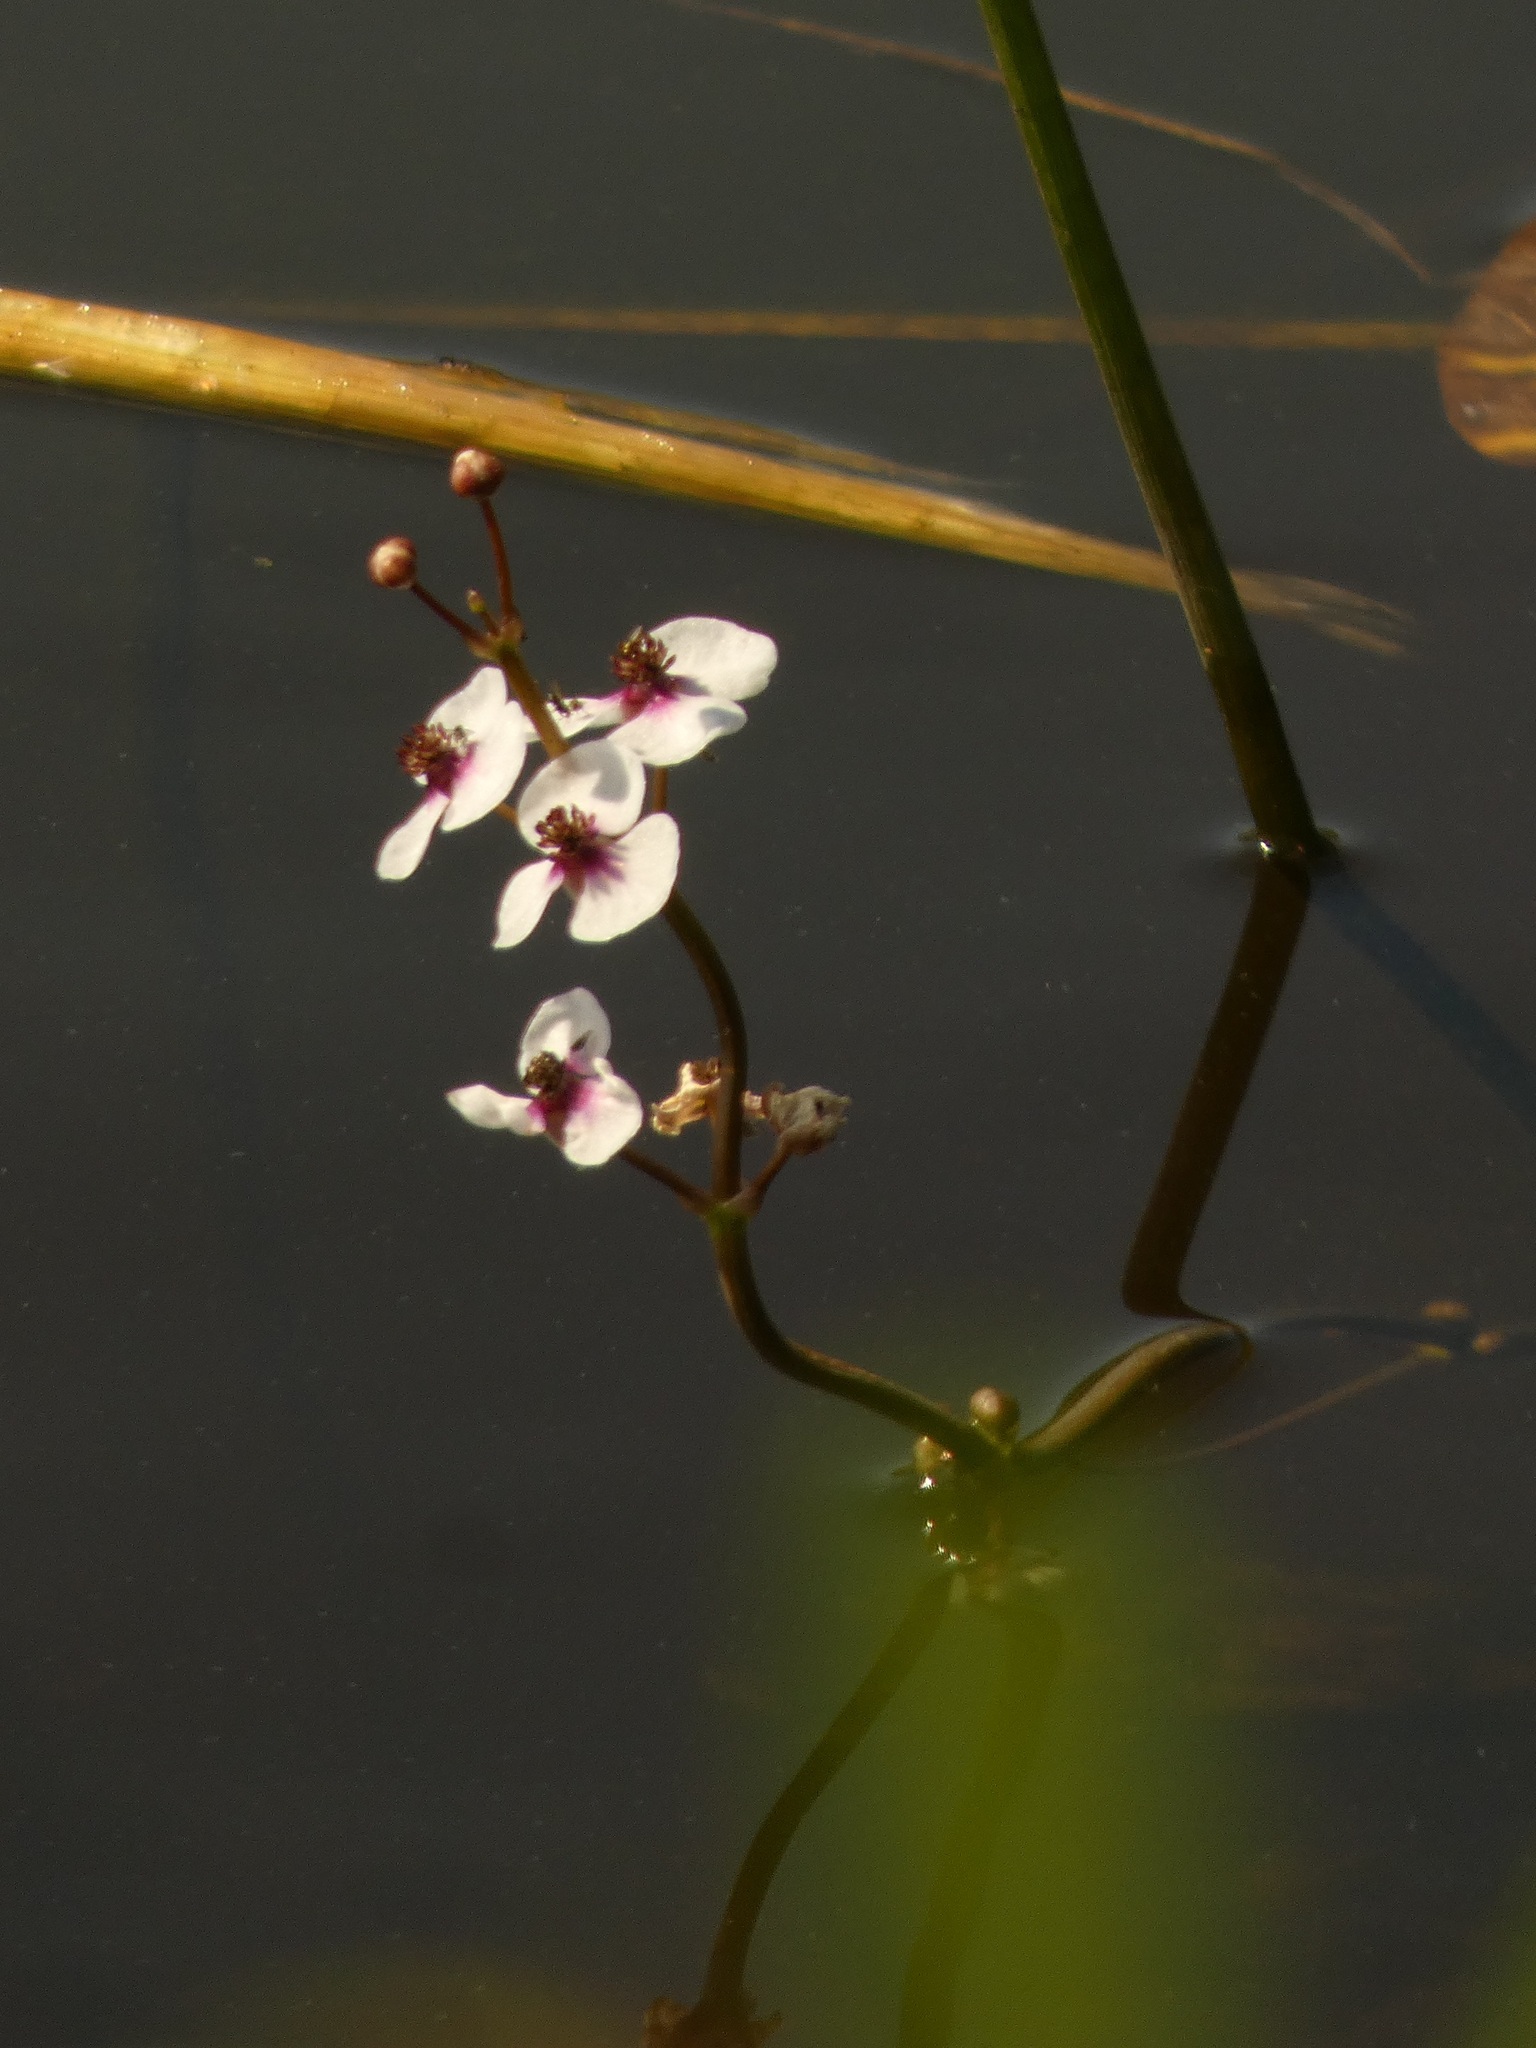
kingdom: Plantae
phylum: Tracheophyta
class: Liliopsida
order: Alismatales
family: Alismataceae
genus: Sagittaria
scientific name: Sagittaria sagittifolia
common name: Arrowhead
